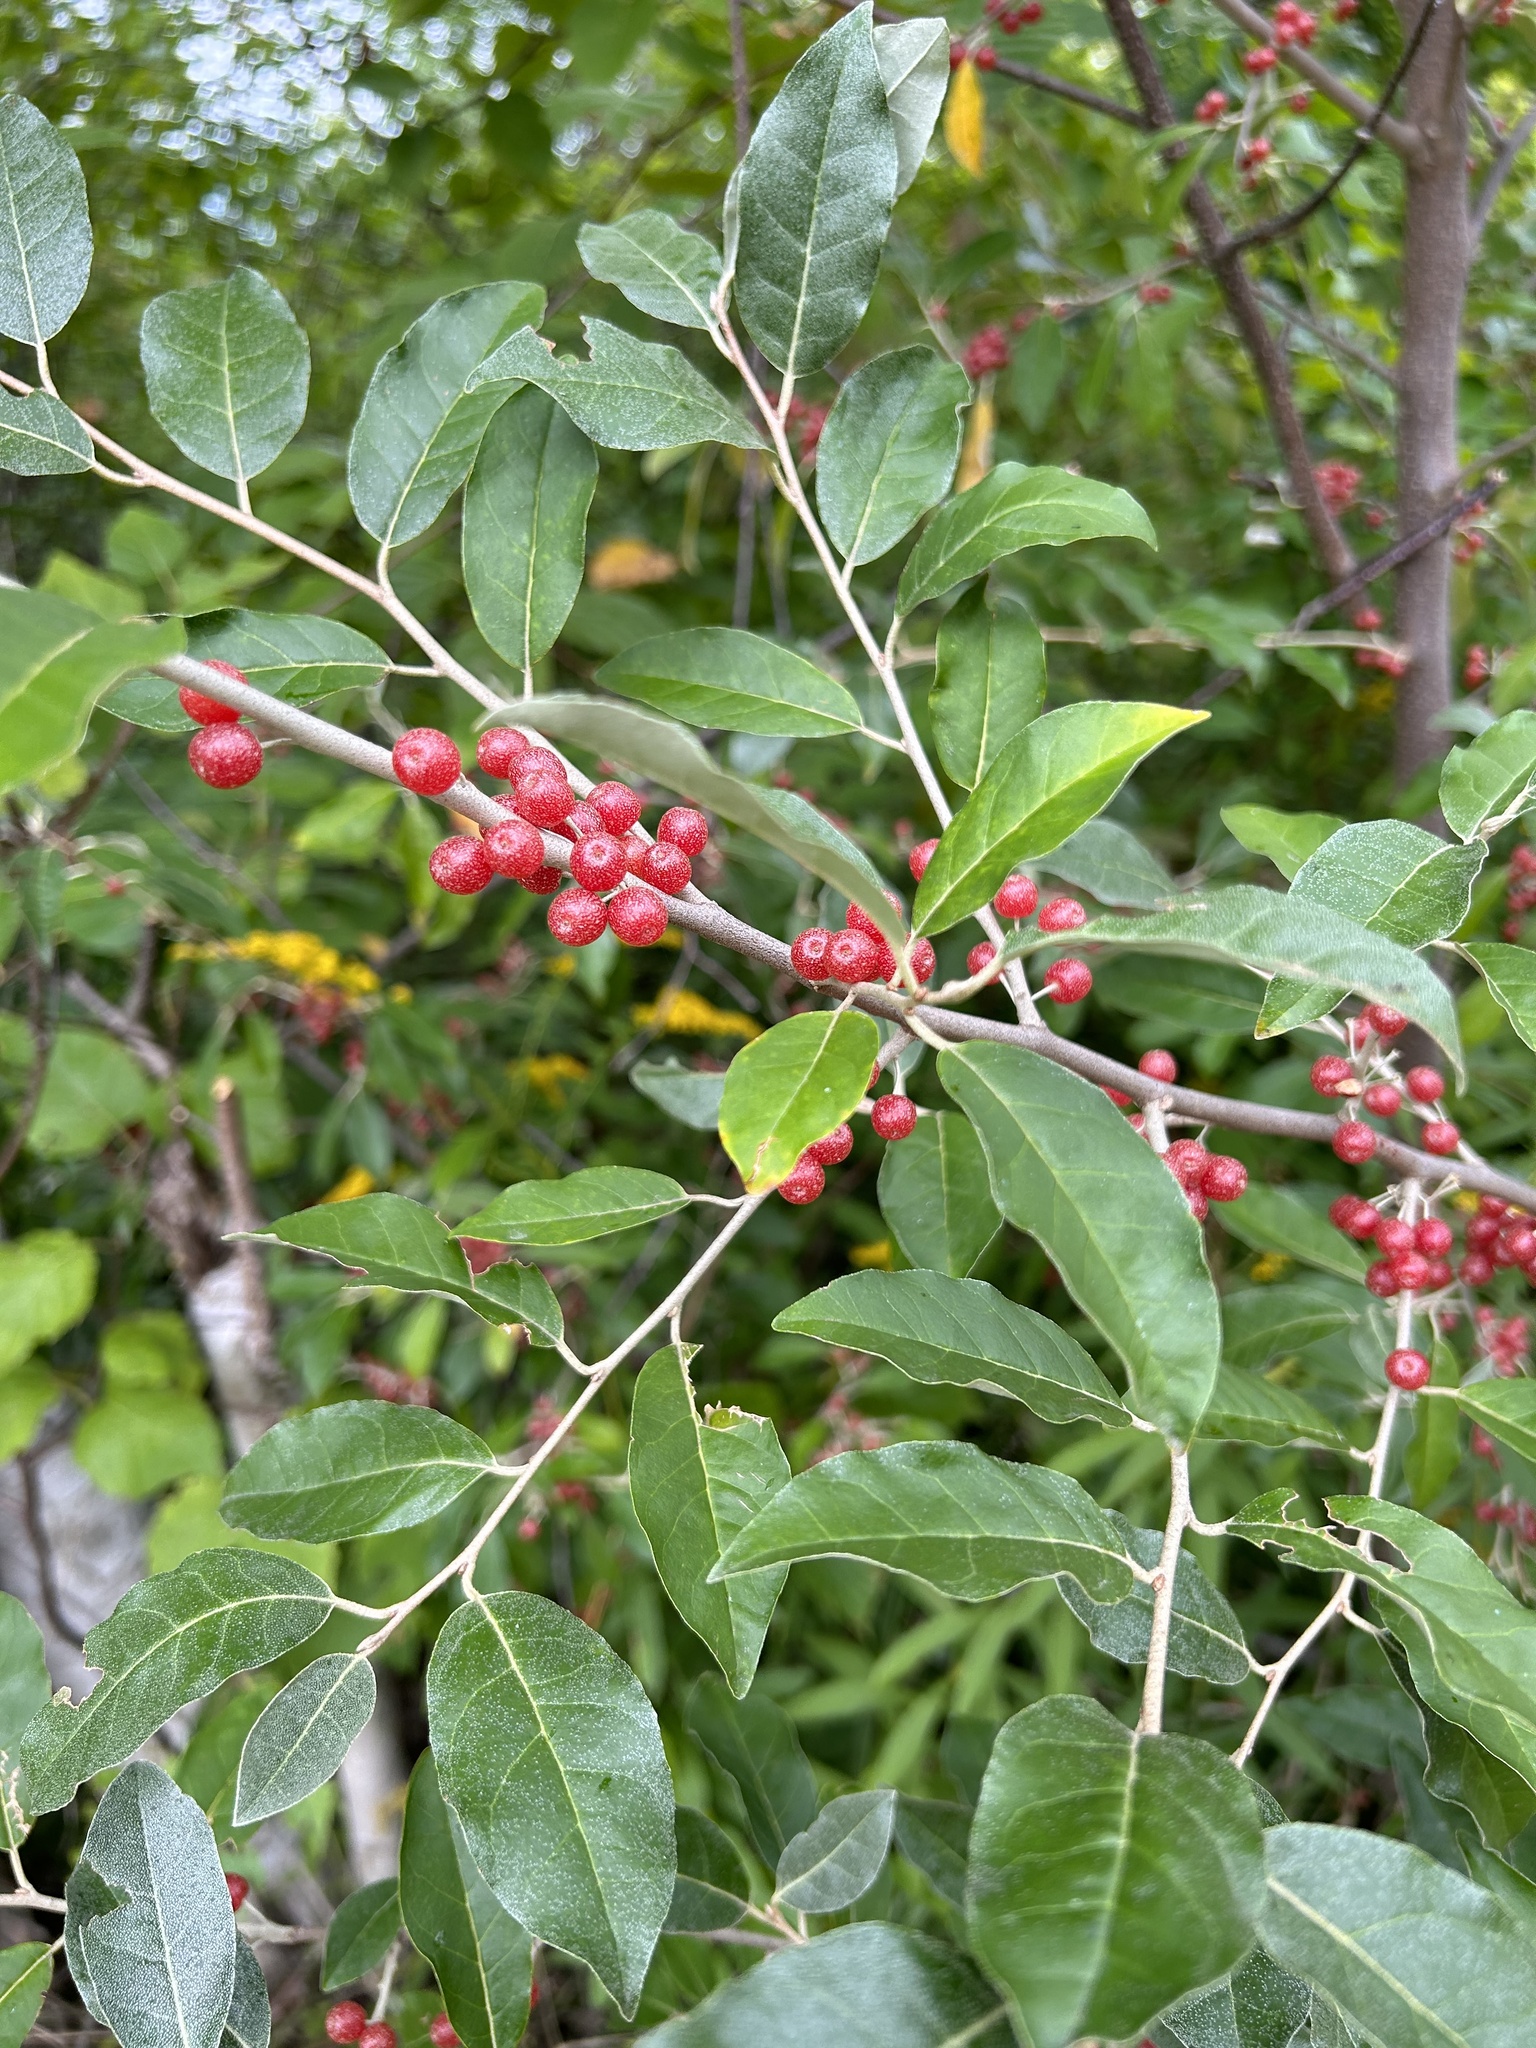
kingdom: Plantae
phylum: Tracheophyta
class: Magnoliopsida
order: Rosales
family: Elaeagnaceae
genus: Elaeagnus
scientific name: Elaeagnus umbellata
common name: Autumn olive
